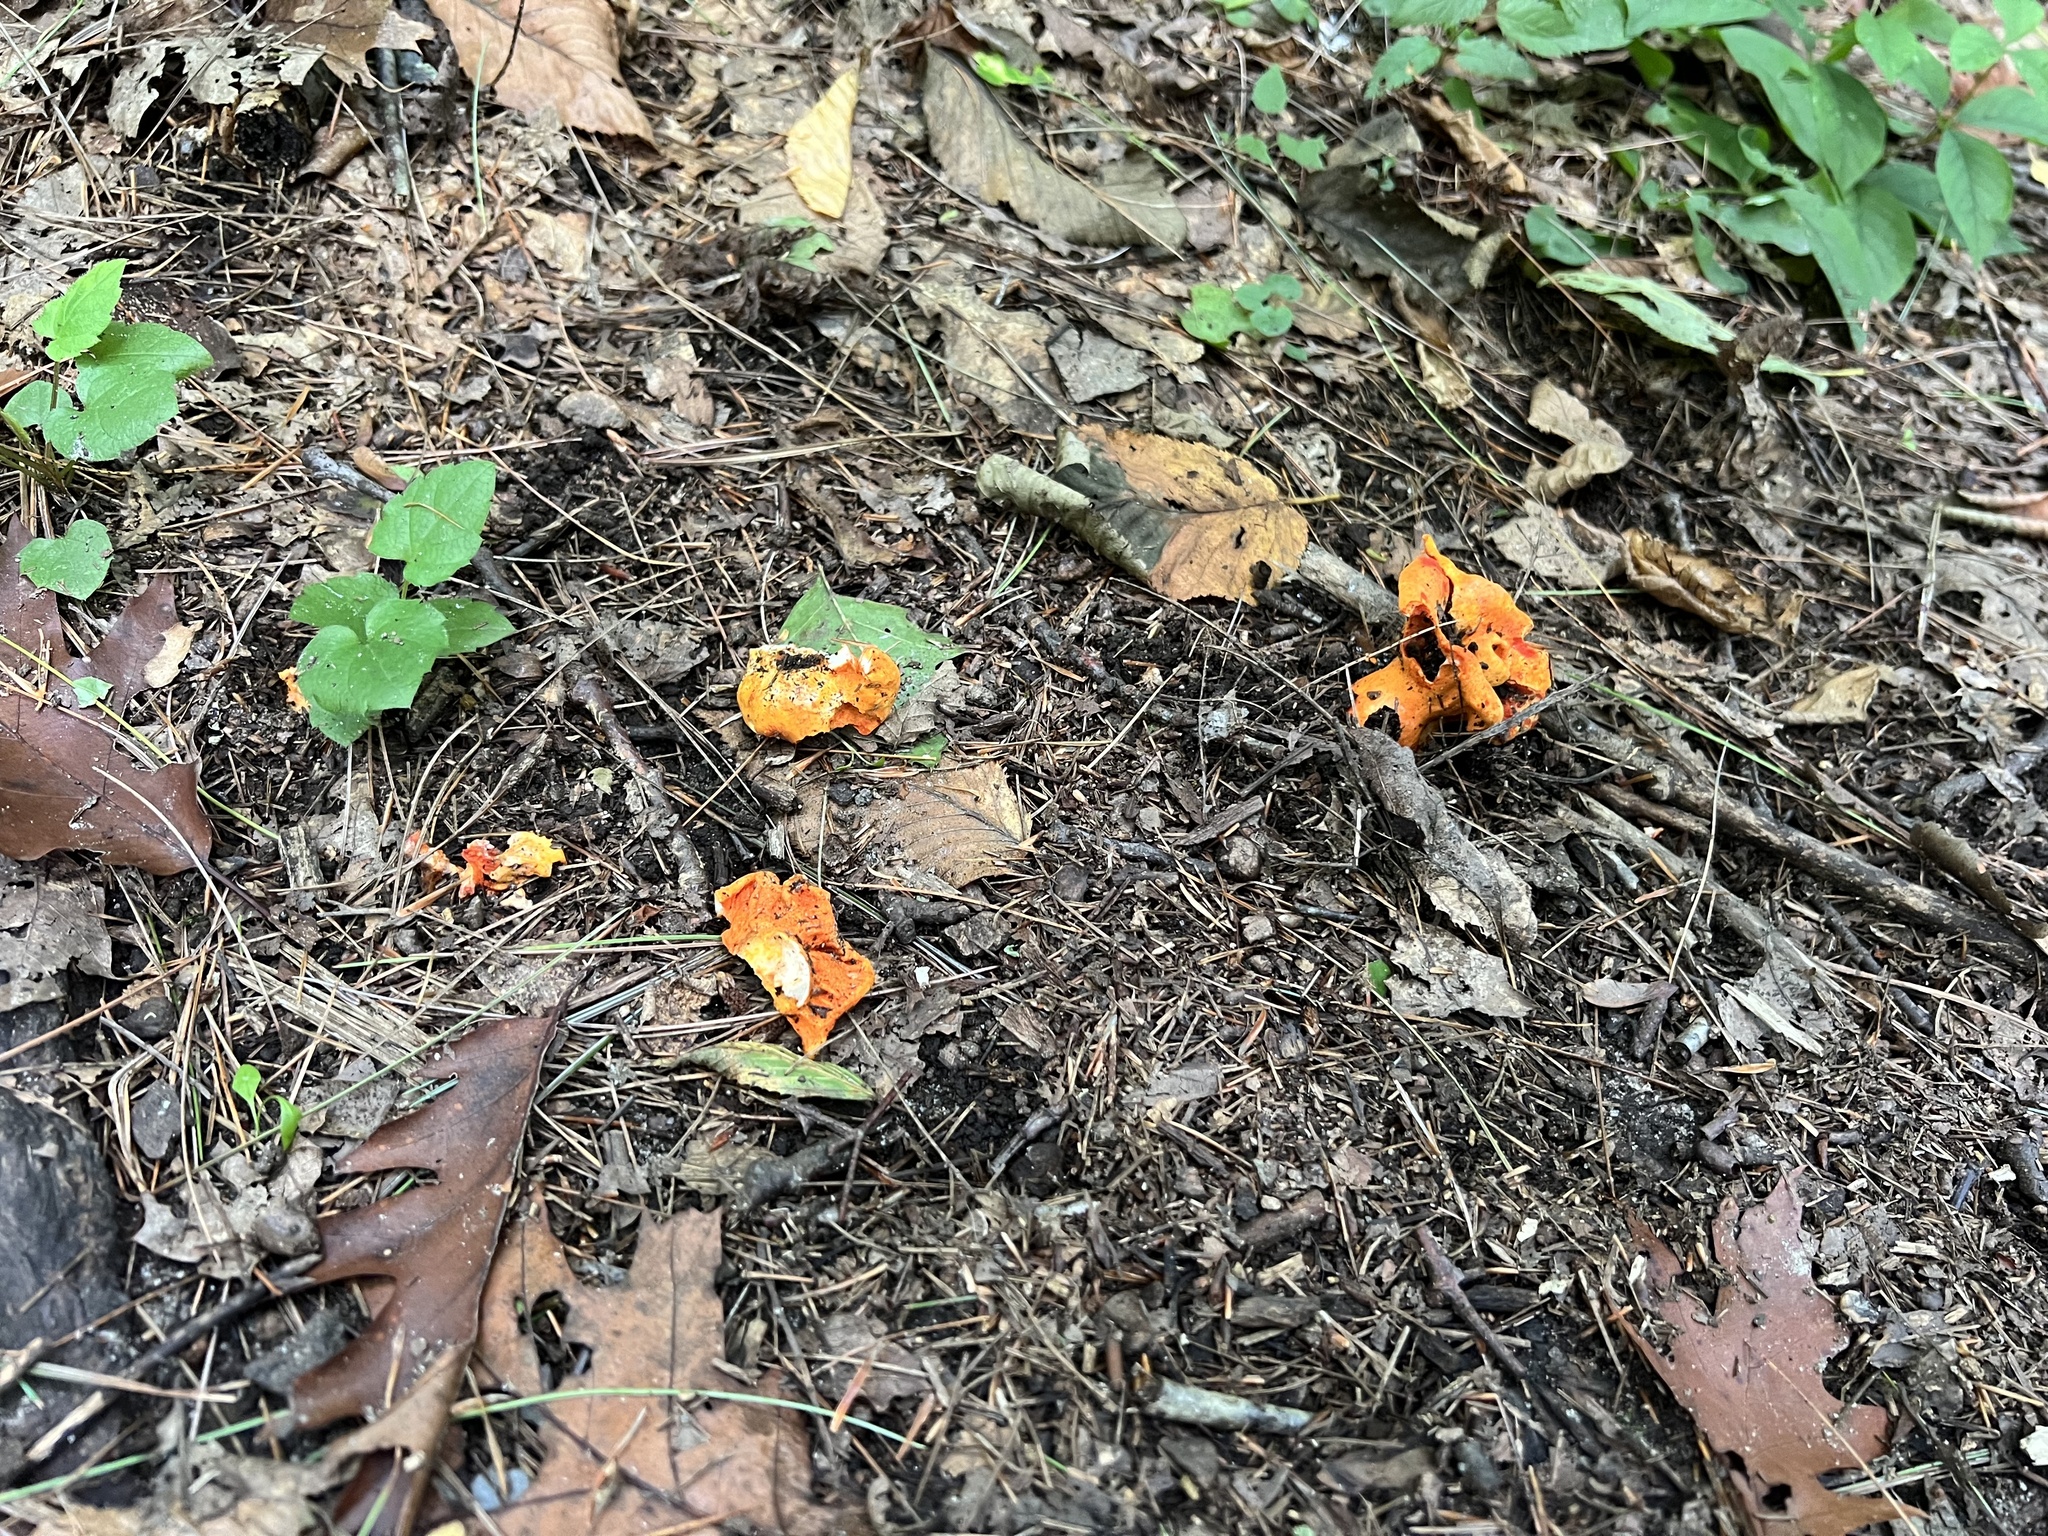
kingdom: Fungi
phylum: Ascomycota
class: Sordariomycetes
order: Hypocreales
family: Hypocreaceae
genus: Hypomyces
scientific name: Hypomyces lactifluorum
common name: Lobster mushroom
